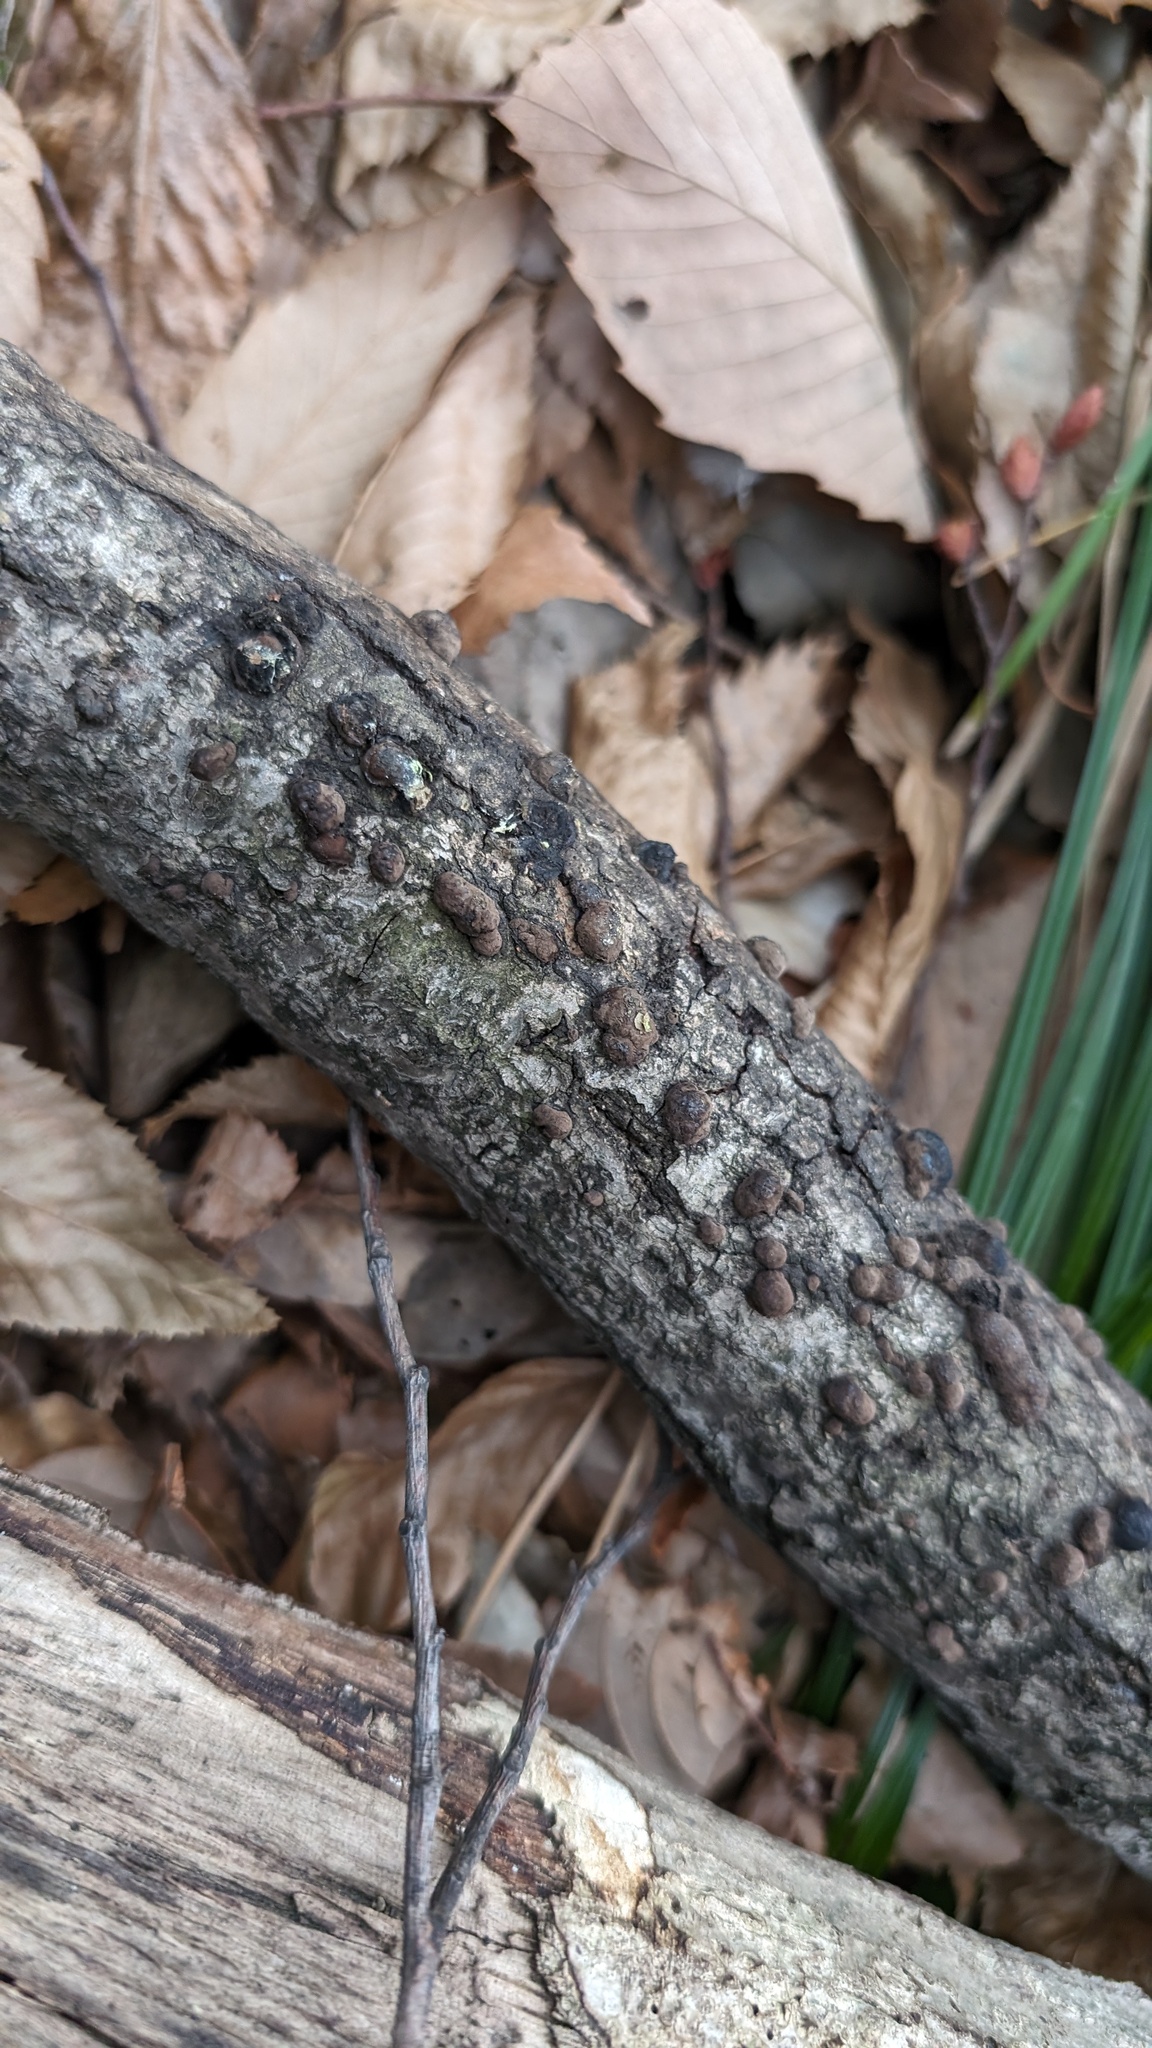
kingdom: Fungi
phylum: Ascomycota
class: Sordariomycetes
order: Xylariales
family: Hypoxylaceae
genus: Annulohypoxylon
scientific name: Annulohypoxylon truncatum
